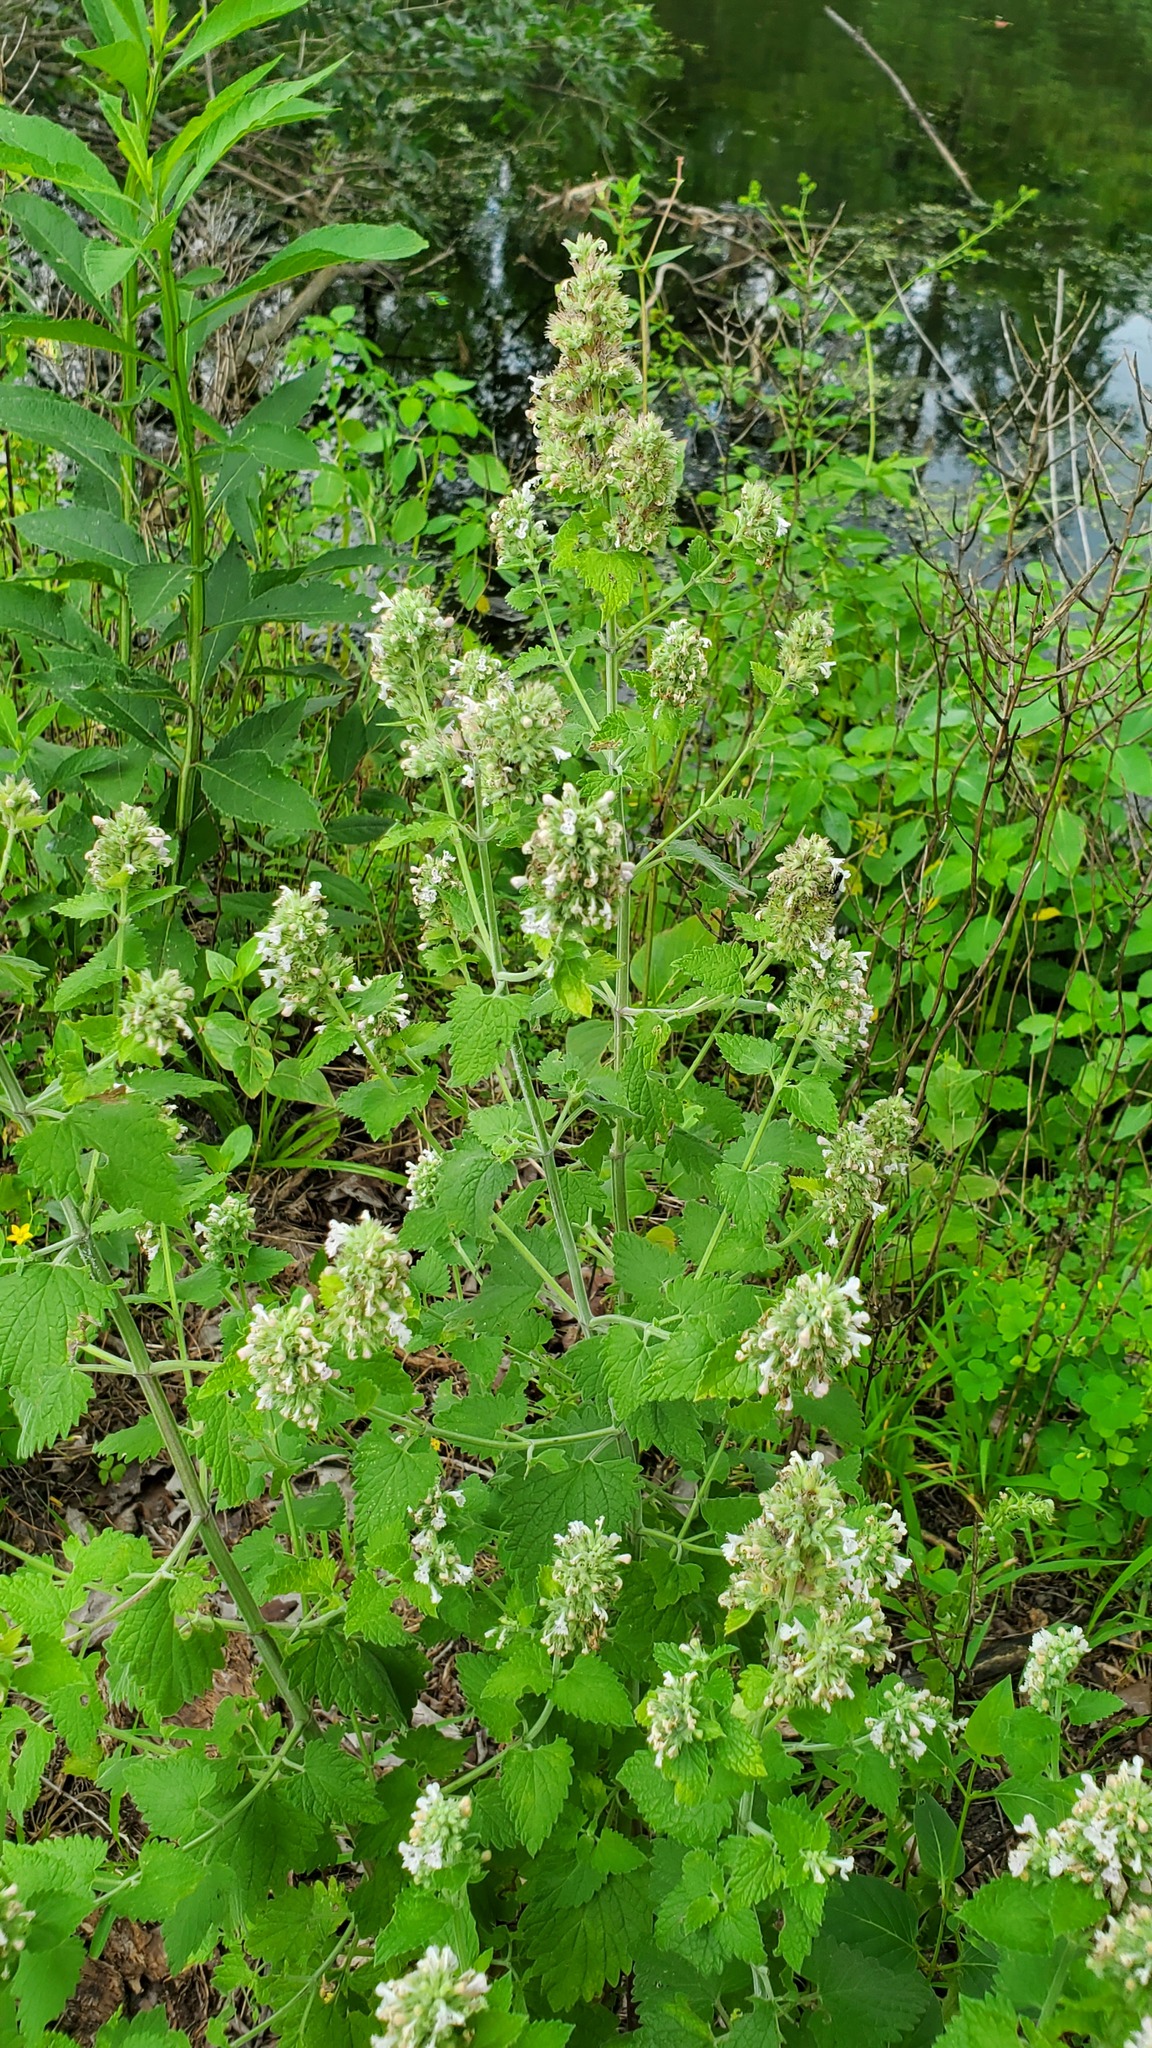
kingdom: Plantae
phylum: Tracheophyta
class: Magnoliopsida
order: Lamiales
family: Lamiaceae
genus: Nepeta
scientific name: Nepeta cataria
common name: Catnip
